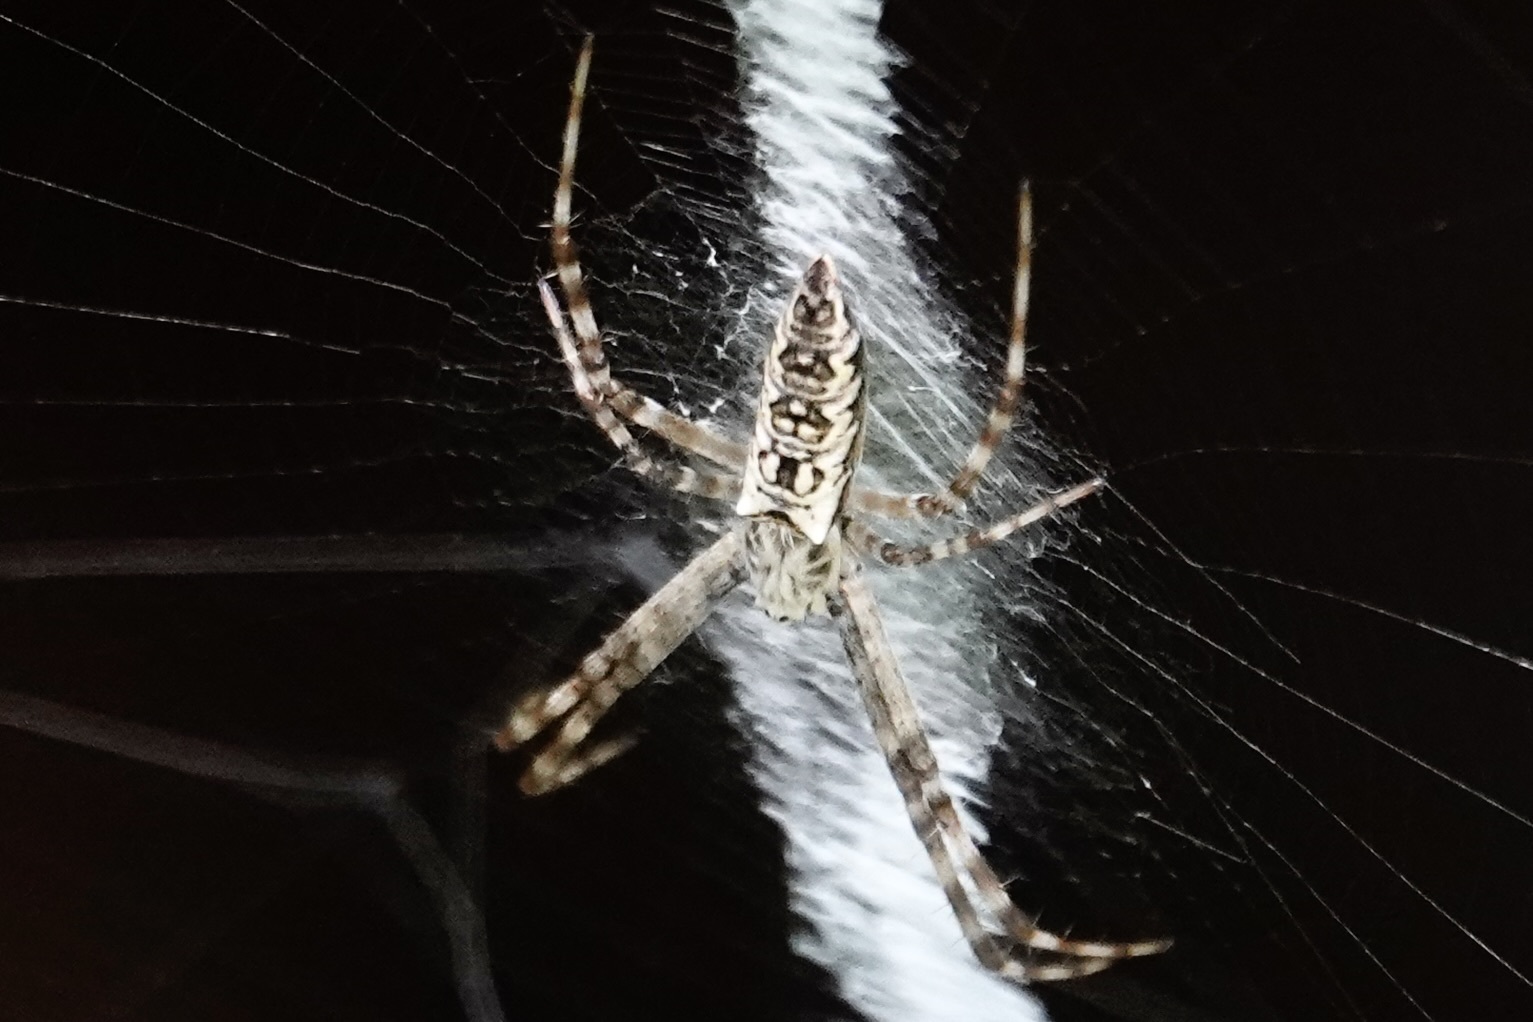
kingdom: Animalia
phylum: Arthropoda
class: Arachnida
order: Araneae
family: Araneidae
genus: Argiope
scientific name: Argiope aurantia
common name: Orb weavers
